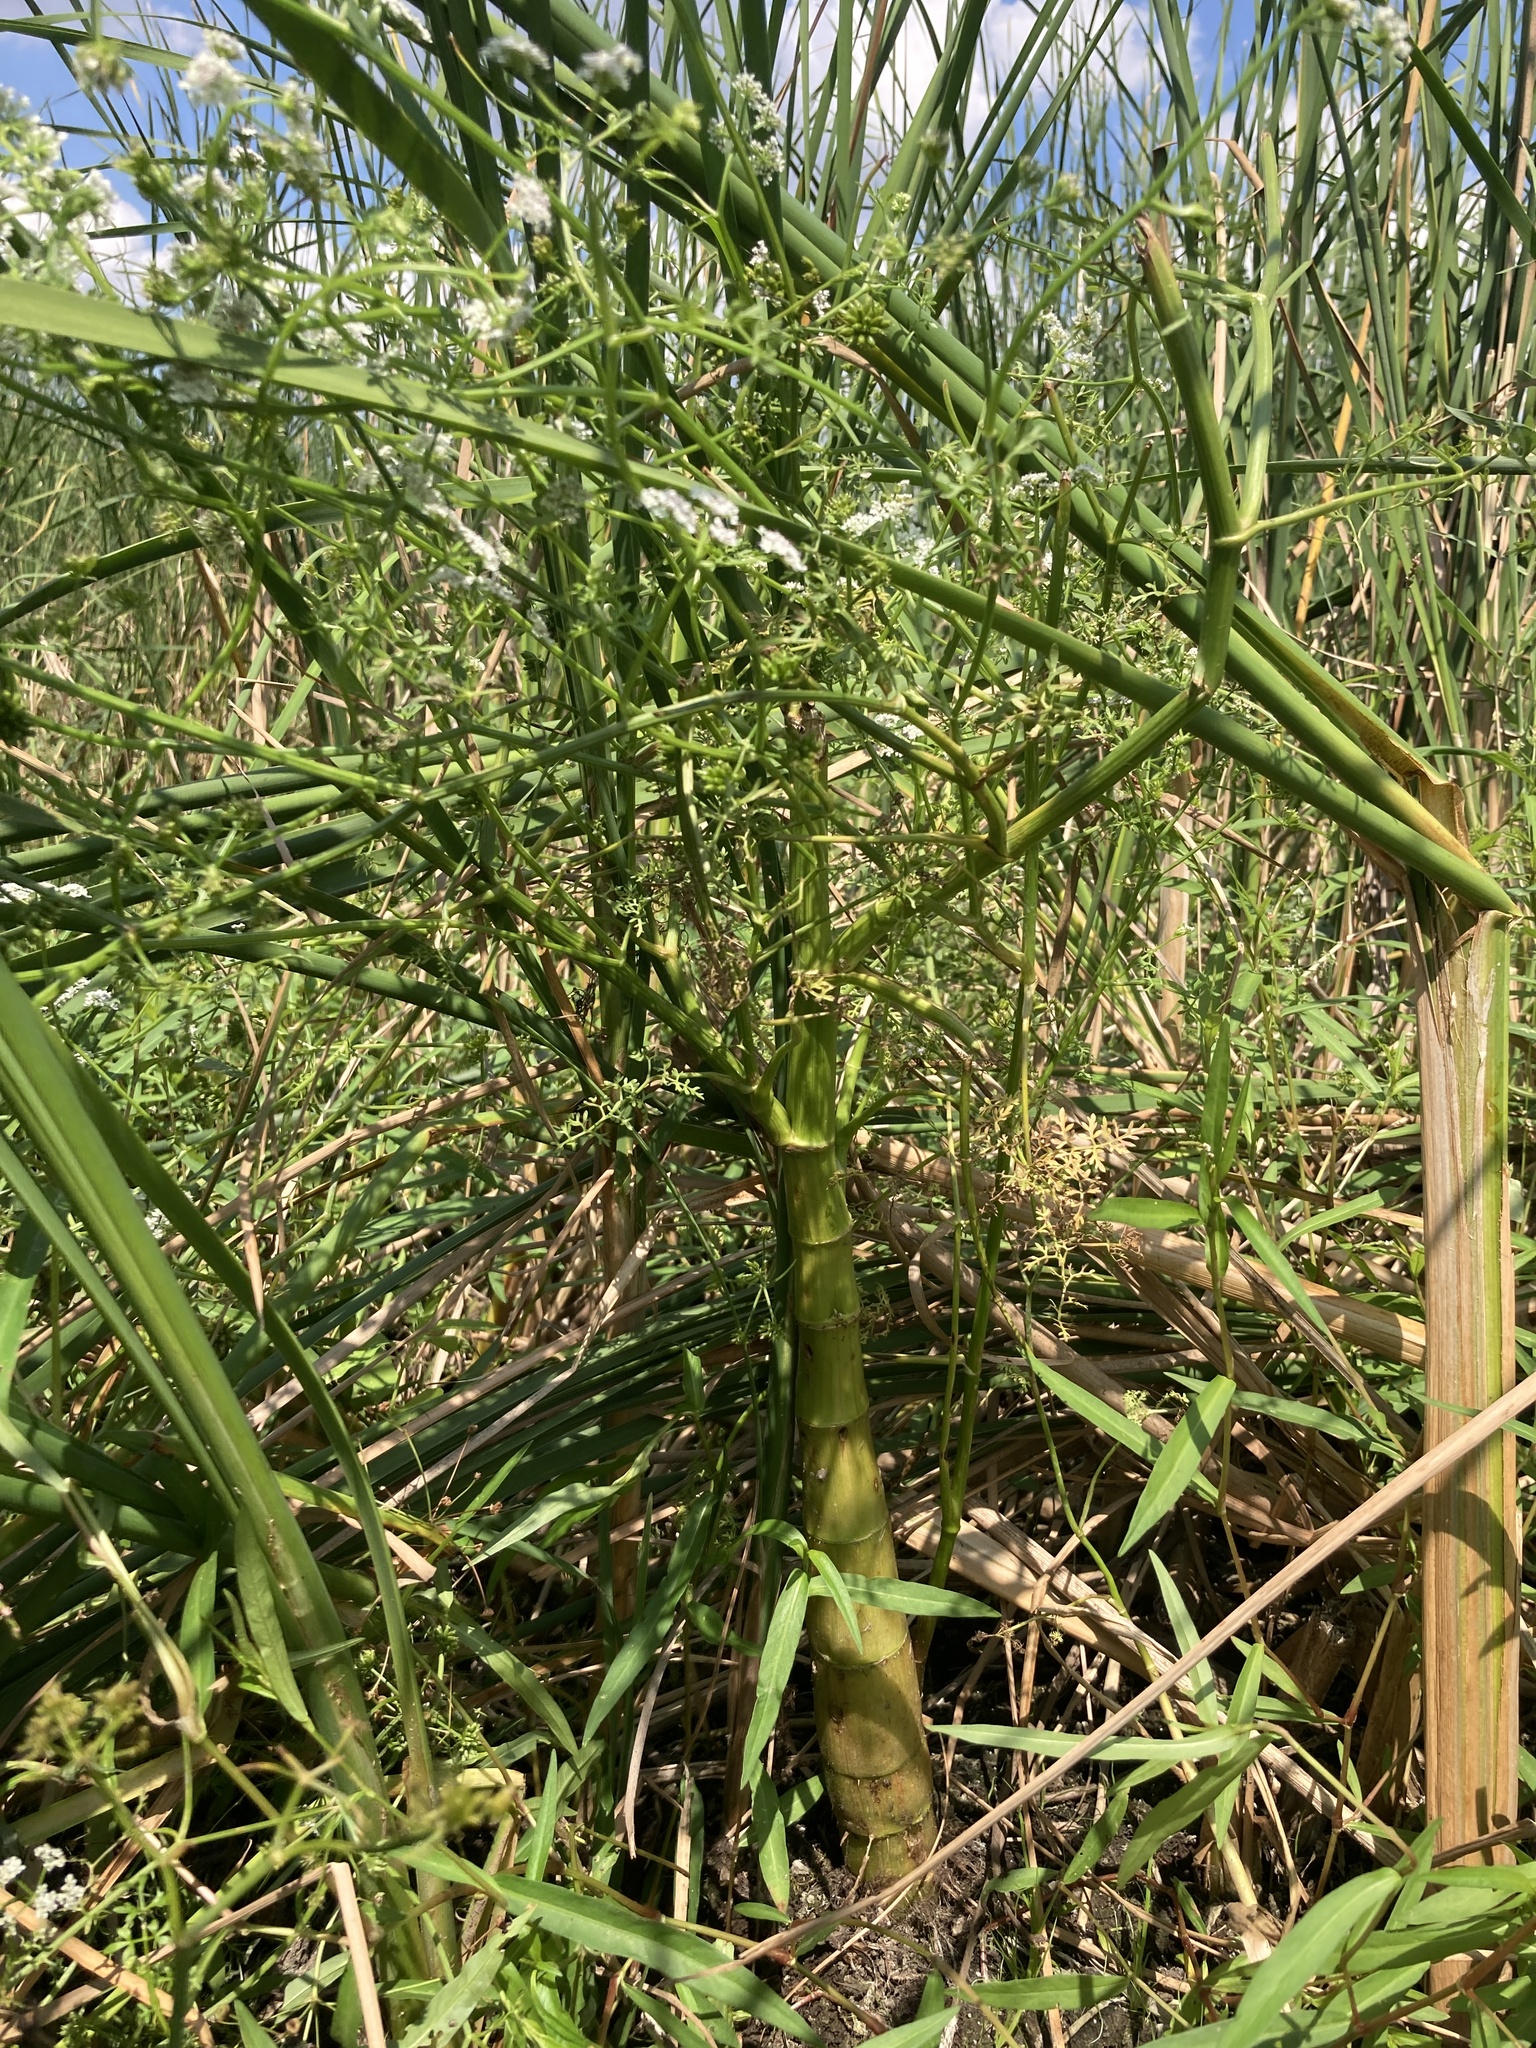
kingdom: Plantae
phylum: Tracheophyta
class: Magnoliopsida
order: Apiales
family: Apiaceae
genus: Oenanthe
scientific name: Oenanthe aquatica
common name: Fine-leaved water-dropwort
